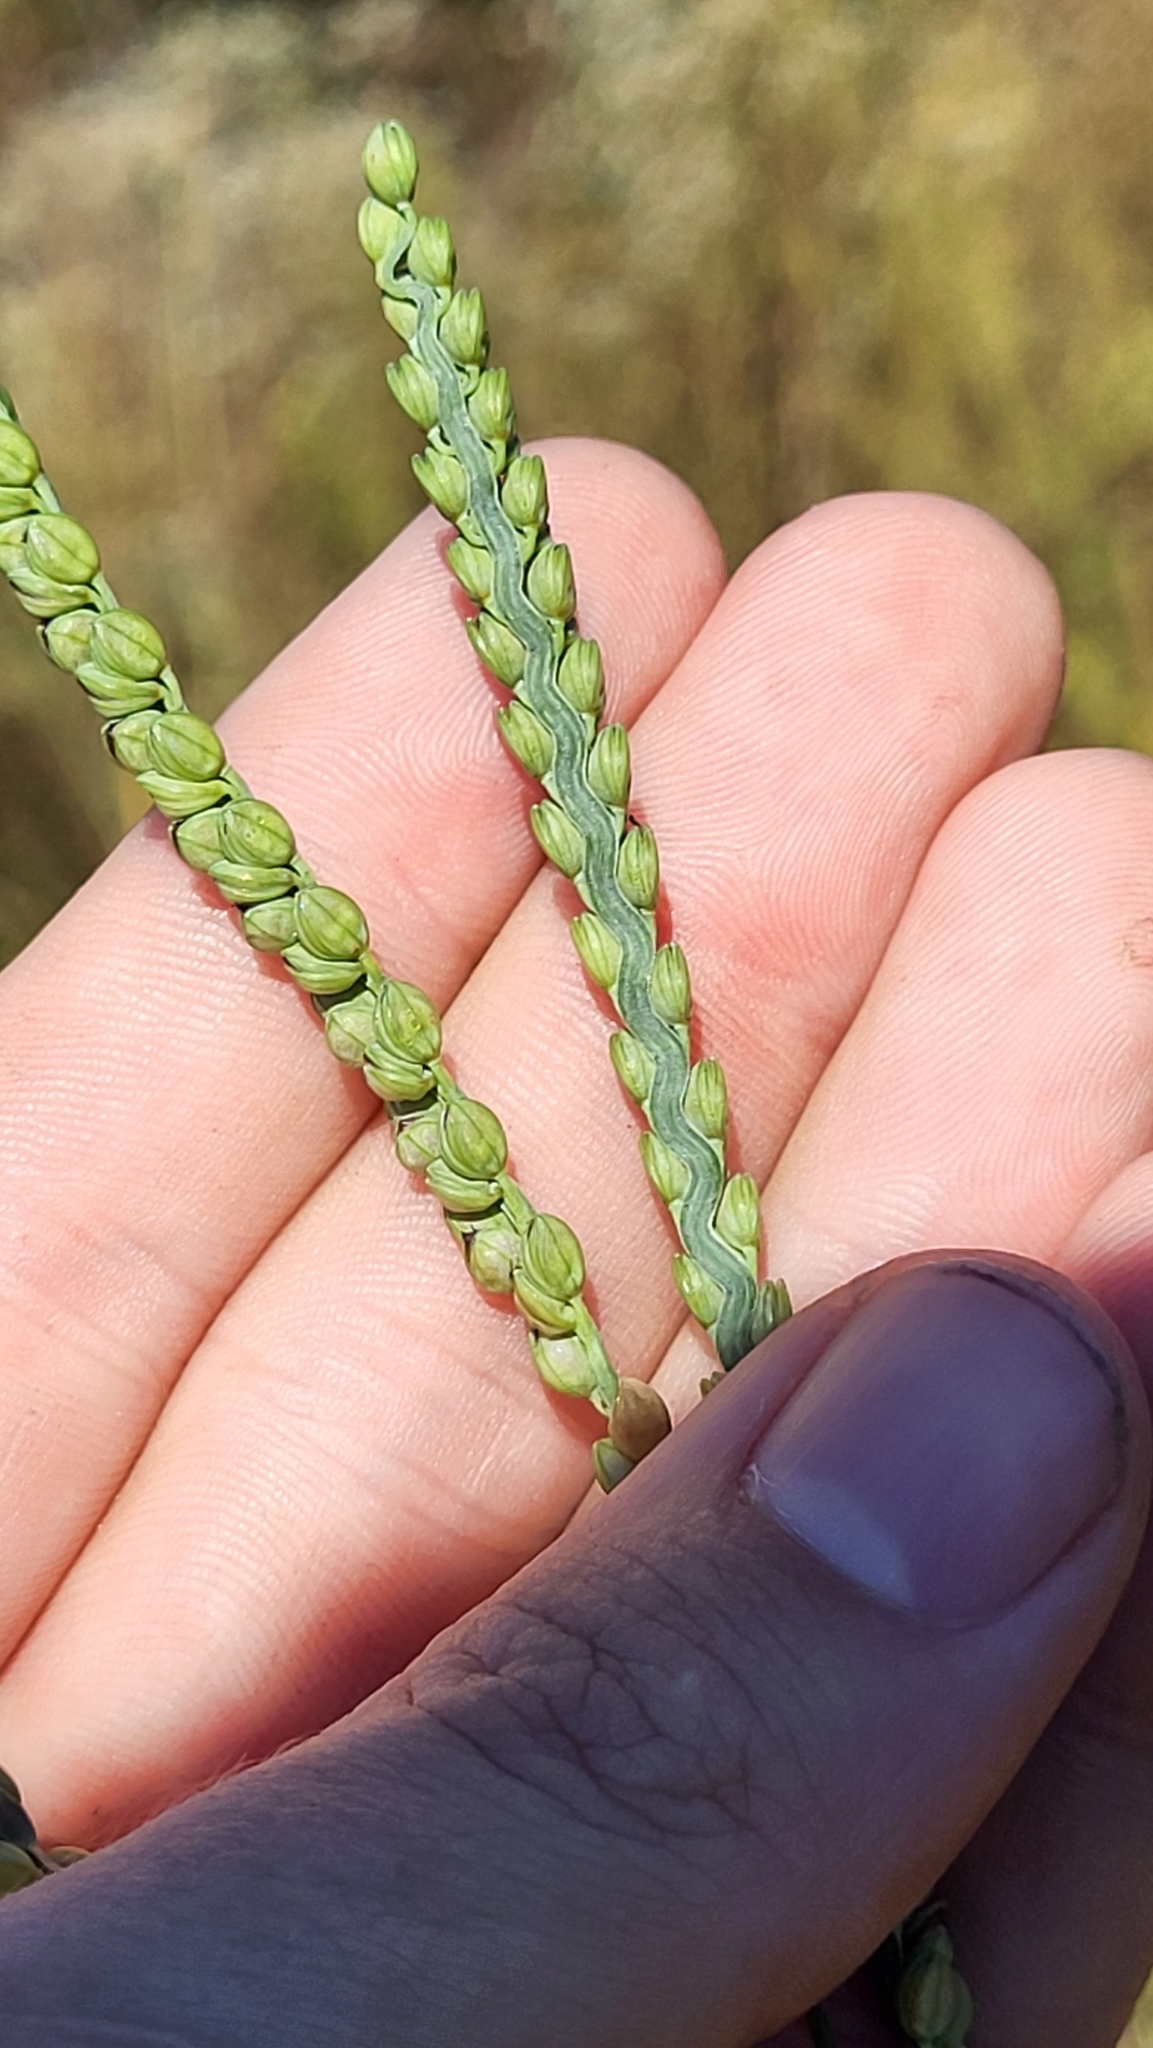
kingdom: Plantae
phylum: Tracheophyta
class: Liliopsida
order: Poales
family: Poaceae
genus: Paspalum
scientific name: Paspalum floridanum
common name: Florida paspalum
